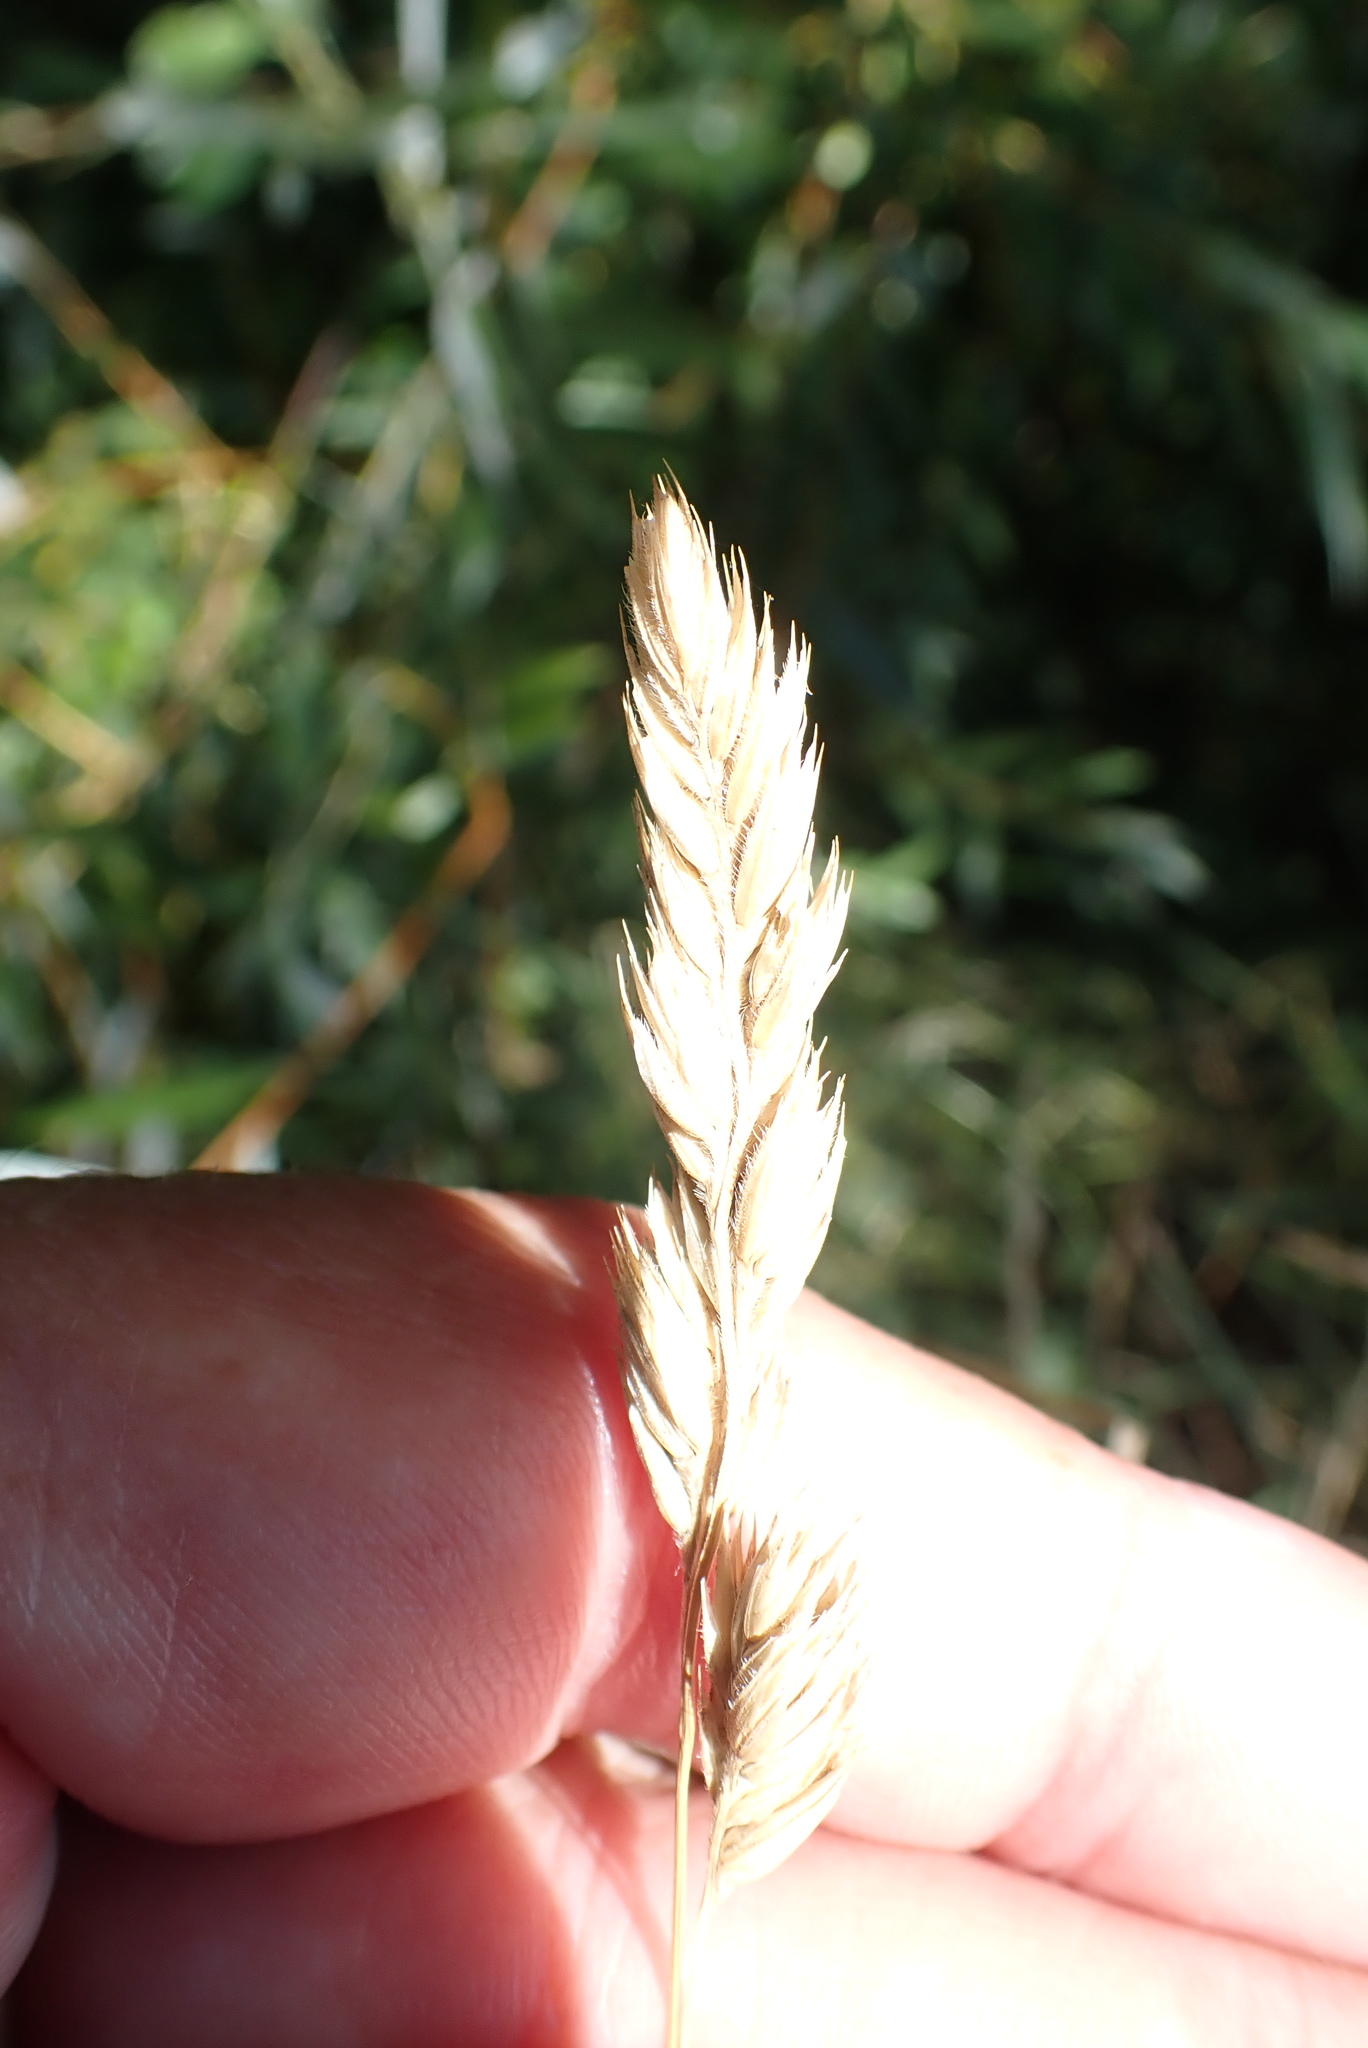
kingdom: Plantae
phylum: Tracheophyta
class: Liliopsida
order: Poales
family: Poaceae
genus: Dactylis
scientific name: Dactylis glomerata
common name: Orchardgrass
